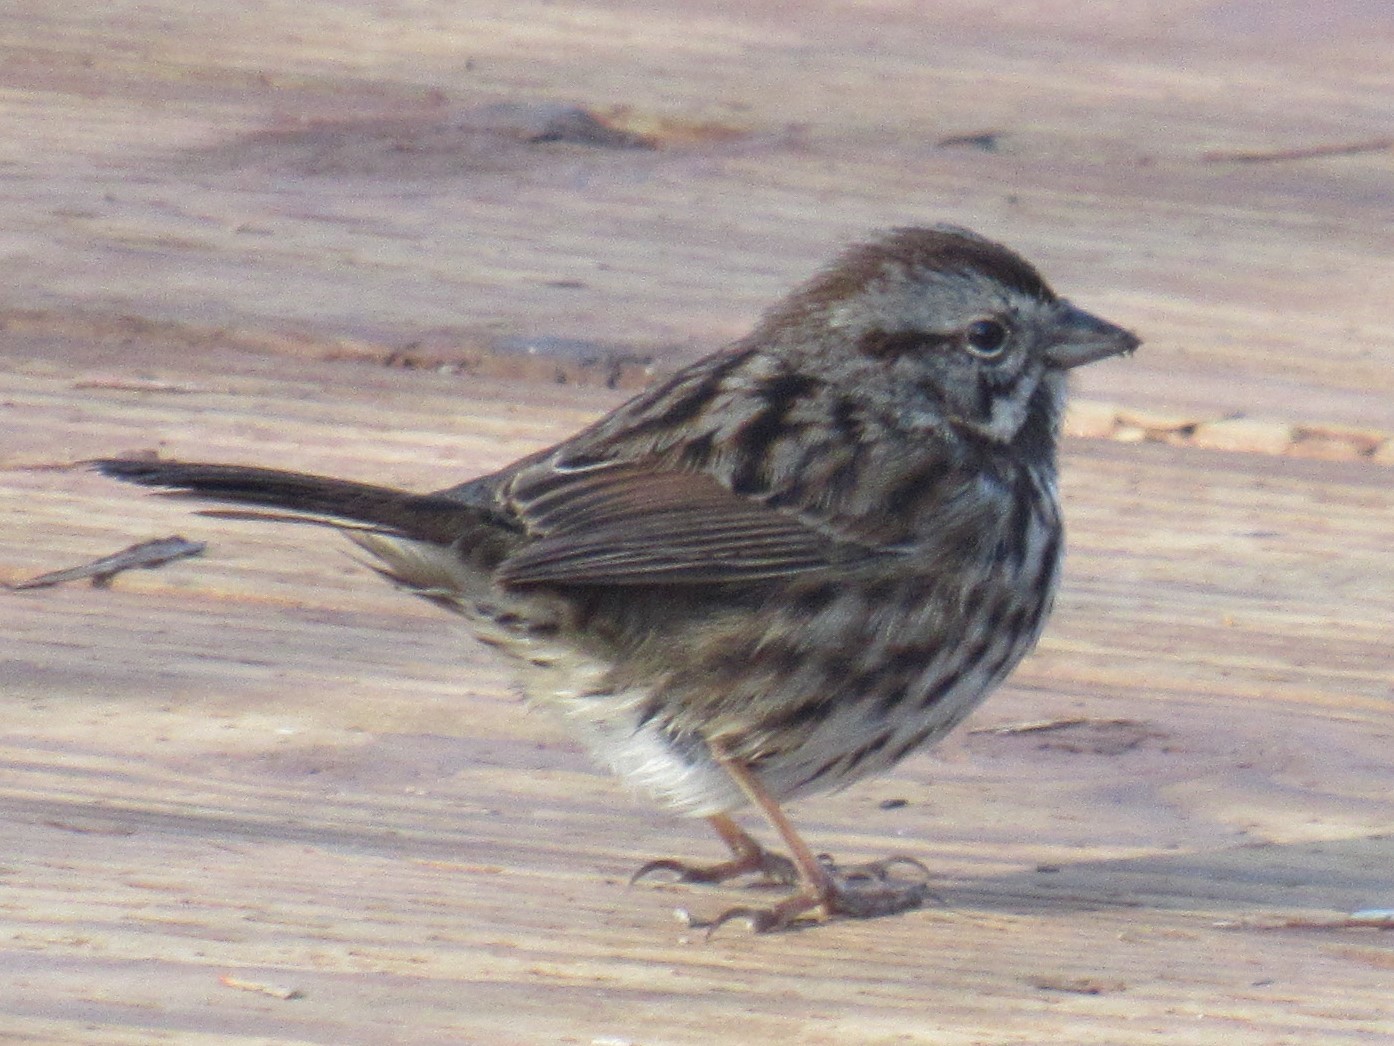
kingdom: Animalia
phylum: Chordata
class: Aves
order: Passeriformes
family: Passerellidae
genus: Melospiza
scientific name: Melospiza melodia
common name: Song sparrow
